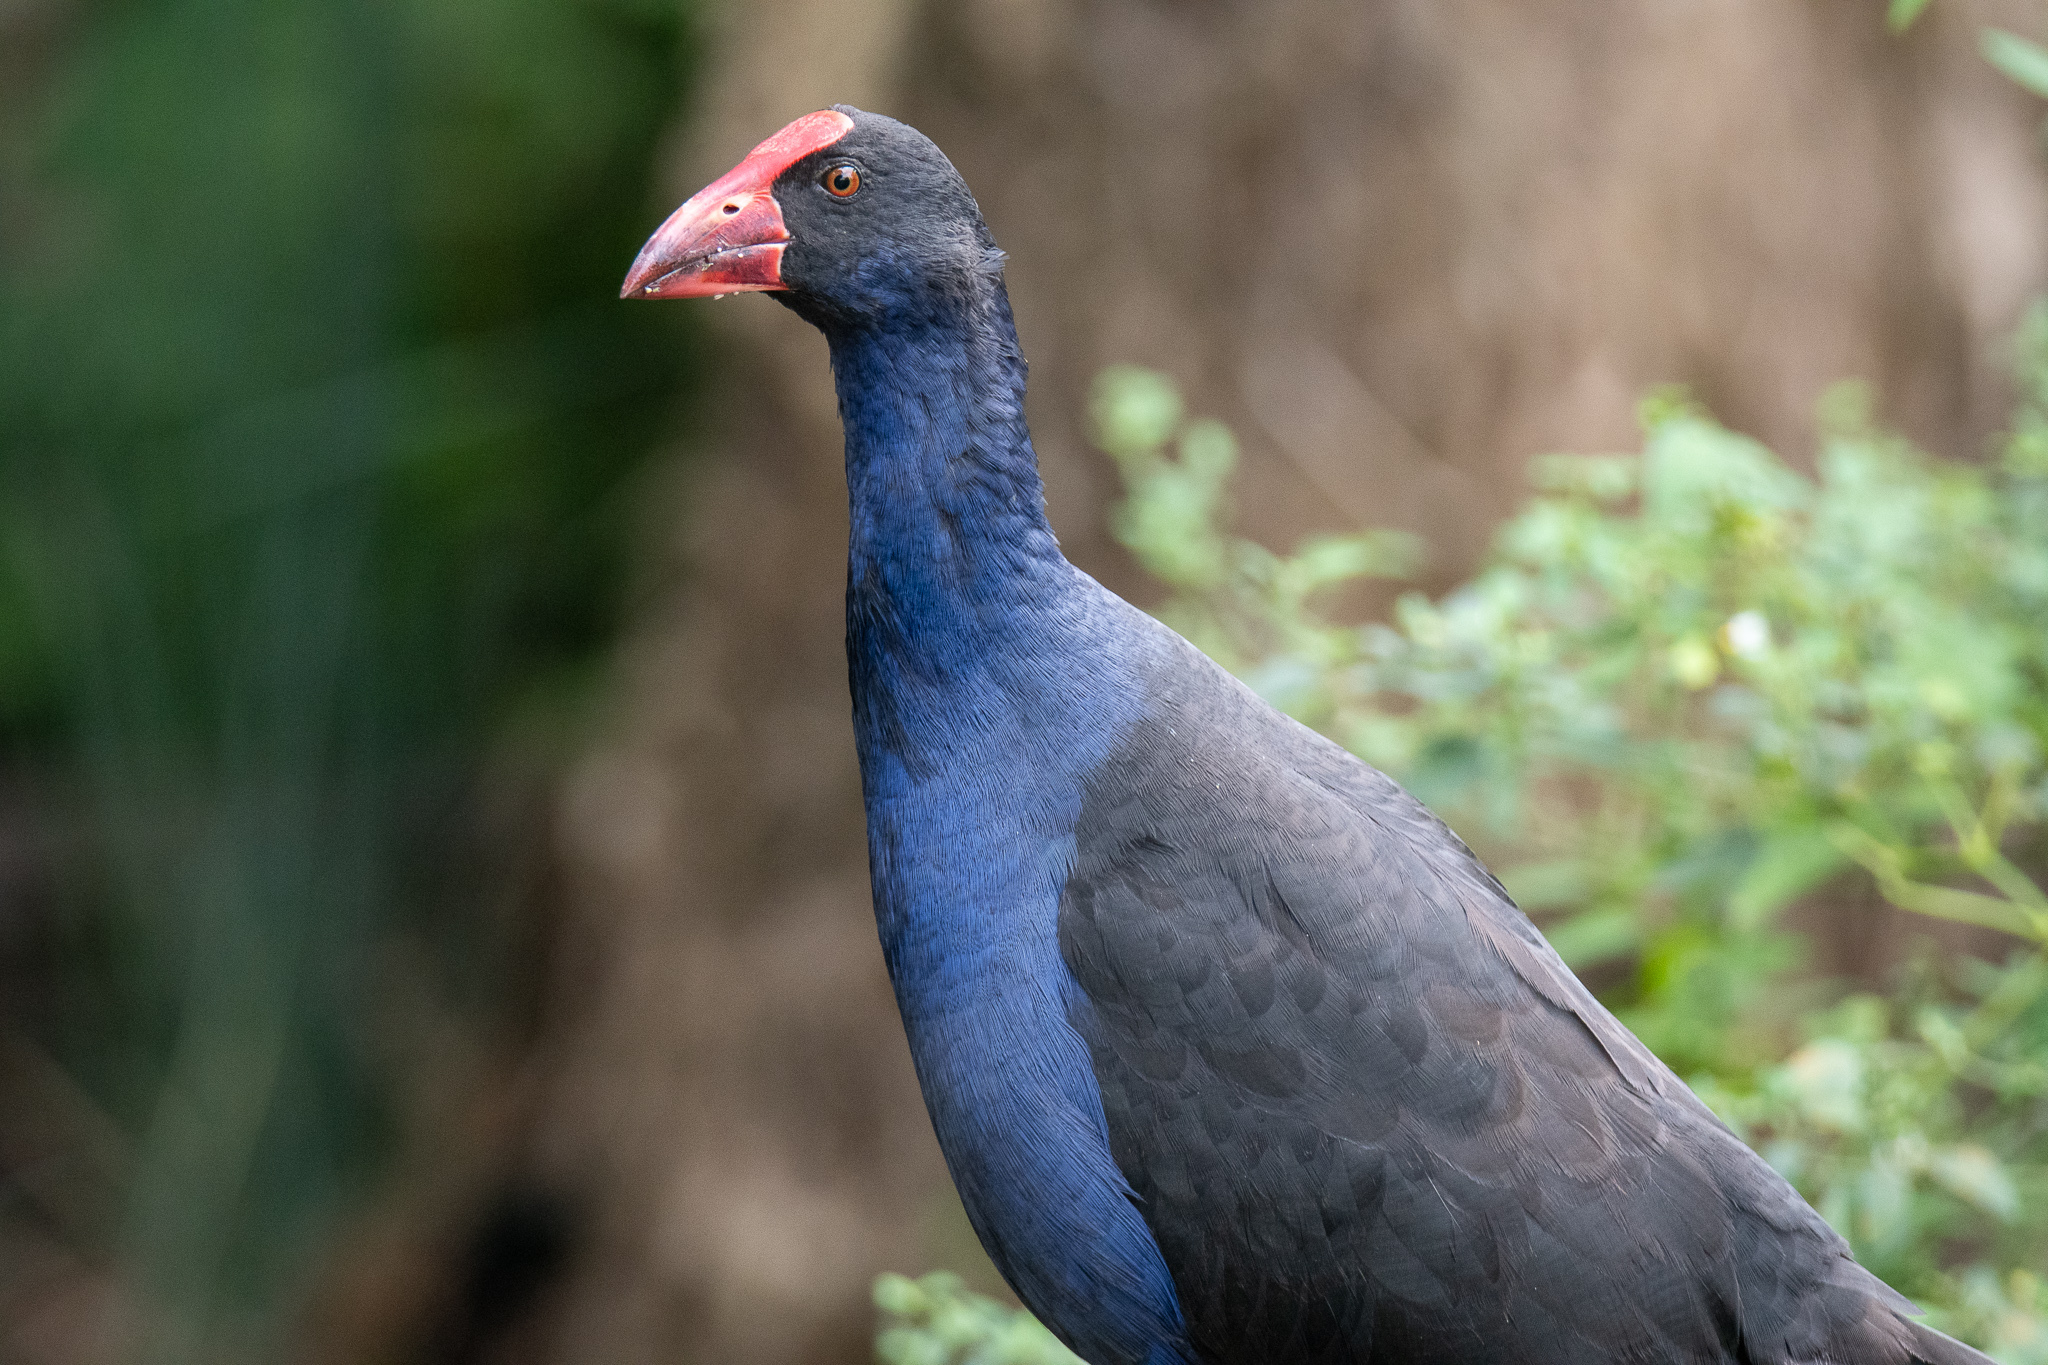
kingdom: Animalia
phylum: Chordata
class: Aves
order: Gruiformes
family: Rallidae
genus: Porphyrio
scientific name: Porphyrio melanotus
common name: Australasian swamphen
